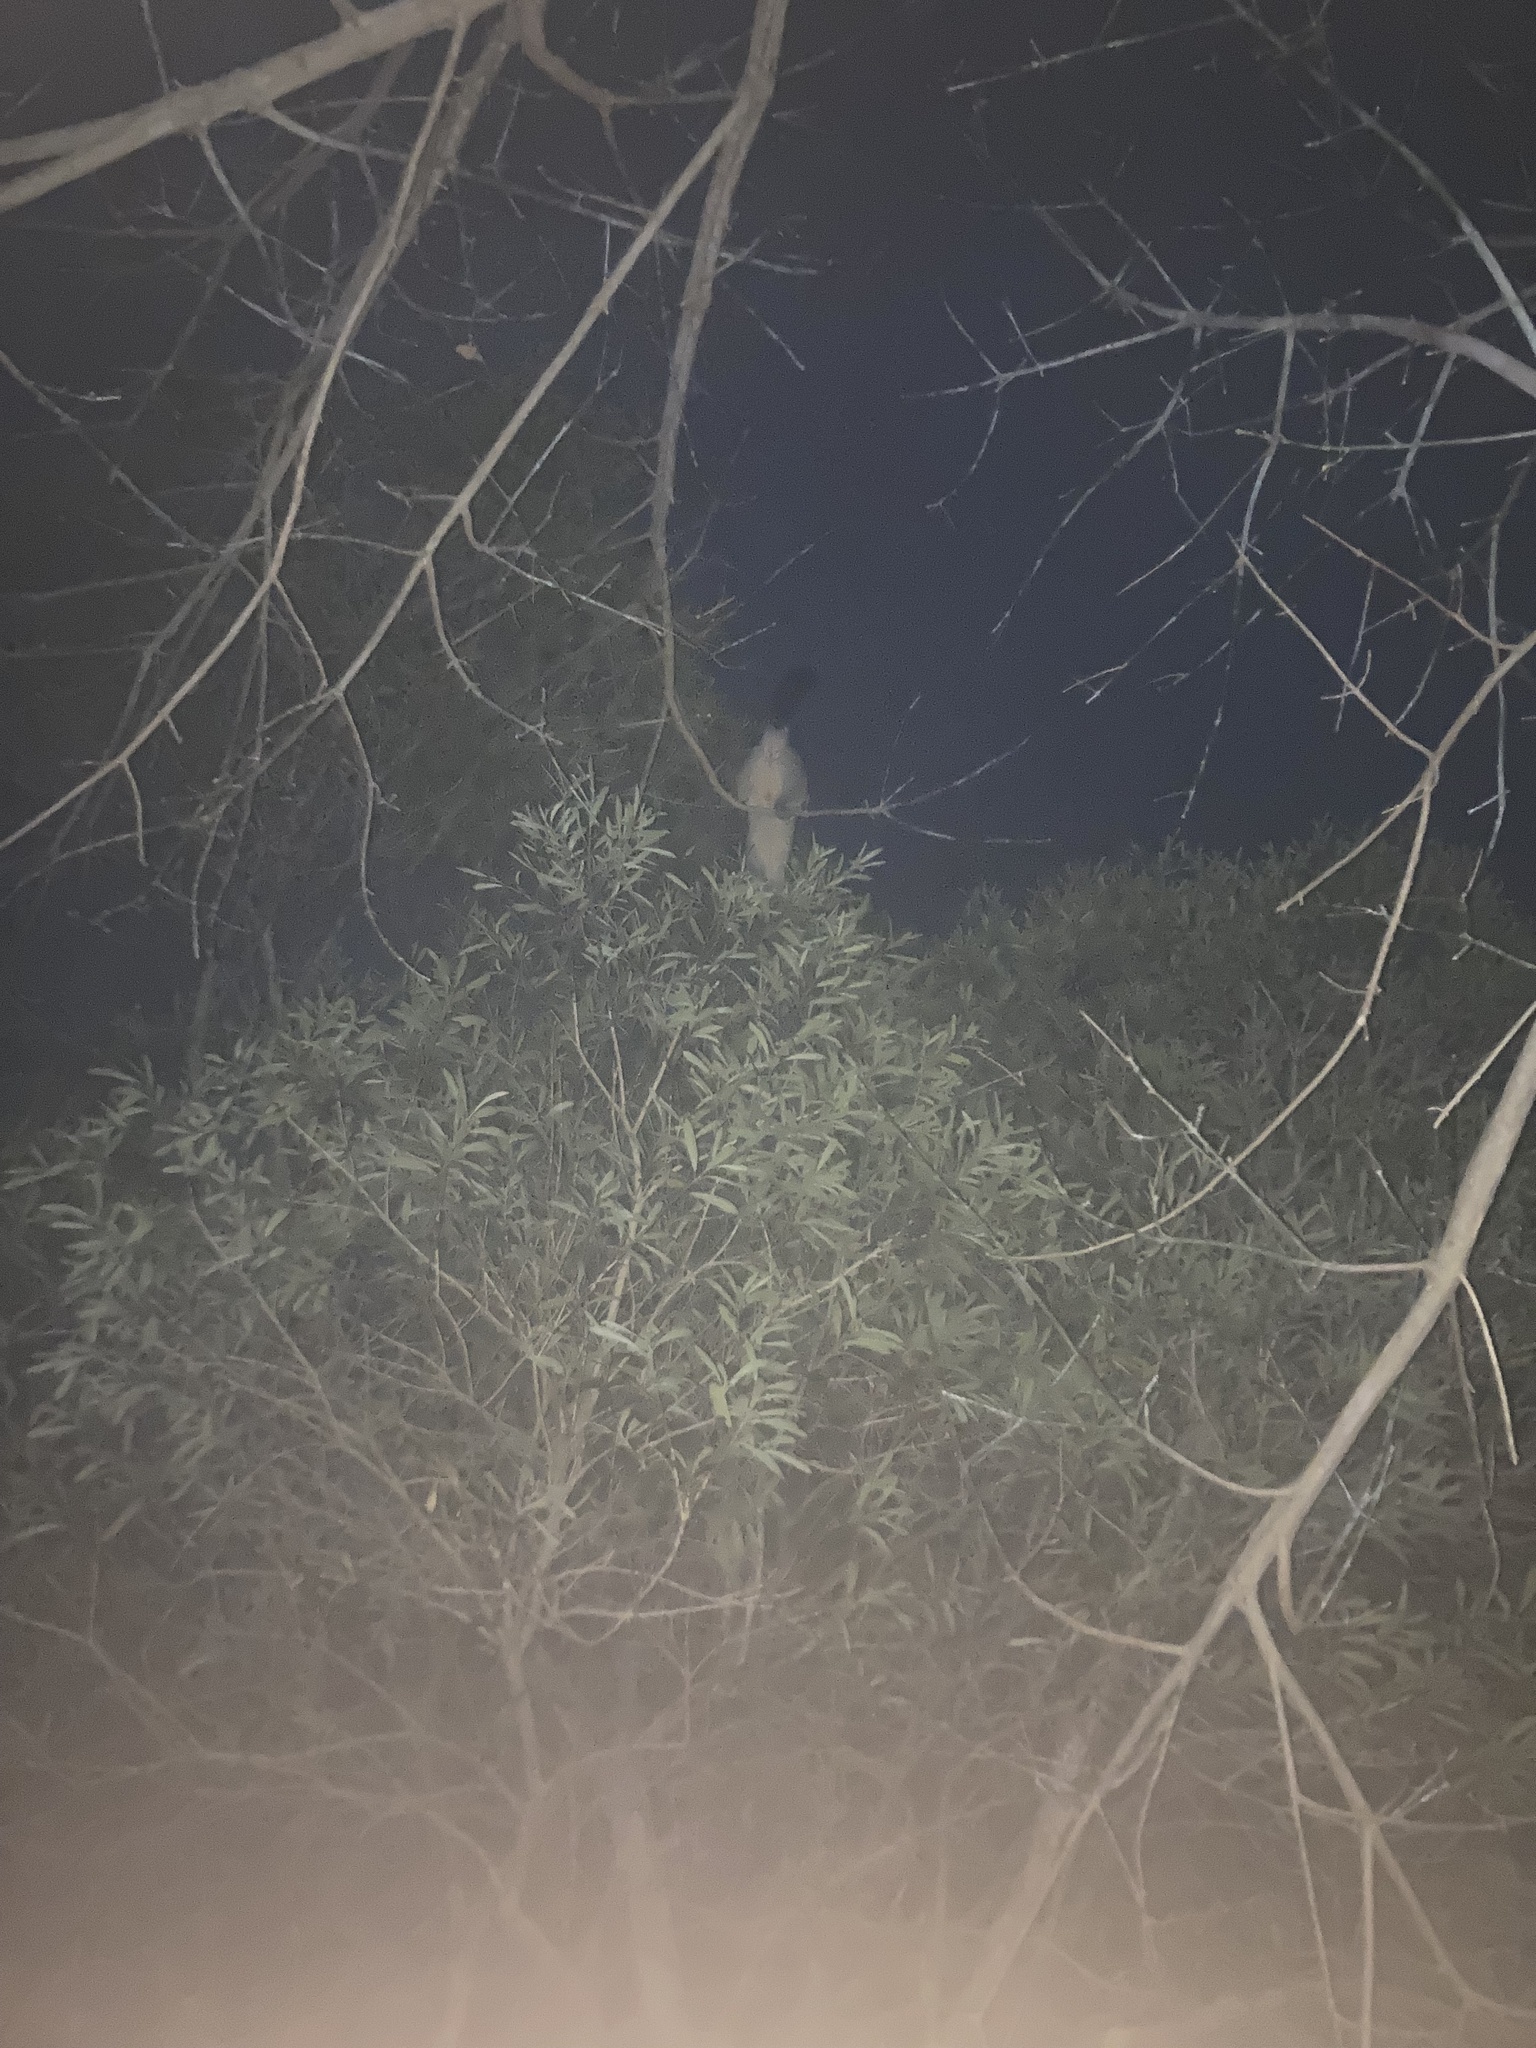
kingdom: Animalia
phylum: Chordata
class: Mammalia
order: Diprotodontia
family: Phalangeridae
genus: Trichosurus
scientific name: Trichosurus vulpecula
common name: Common brushtail
